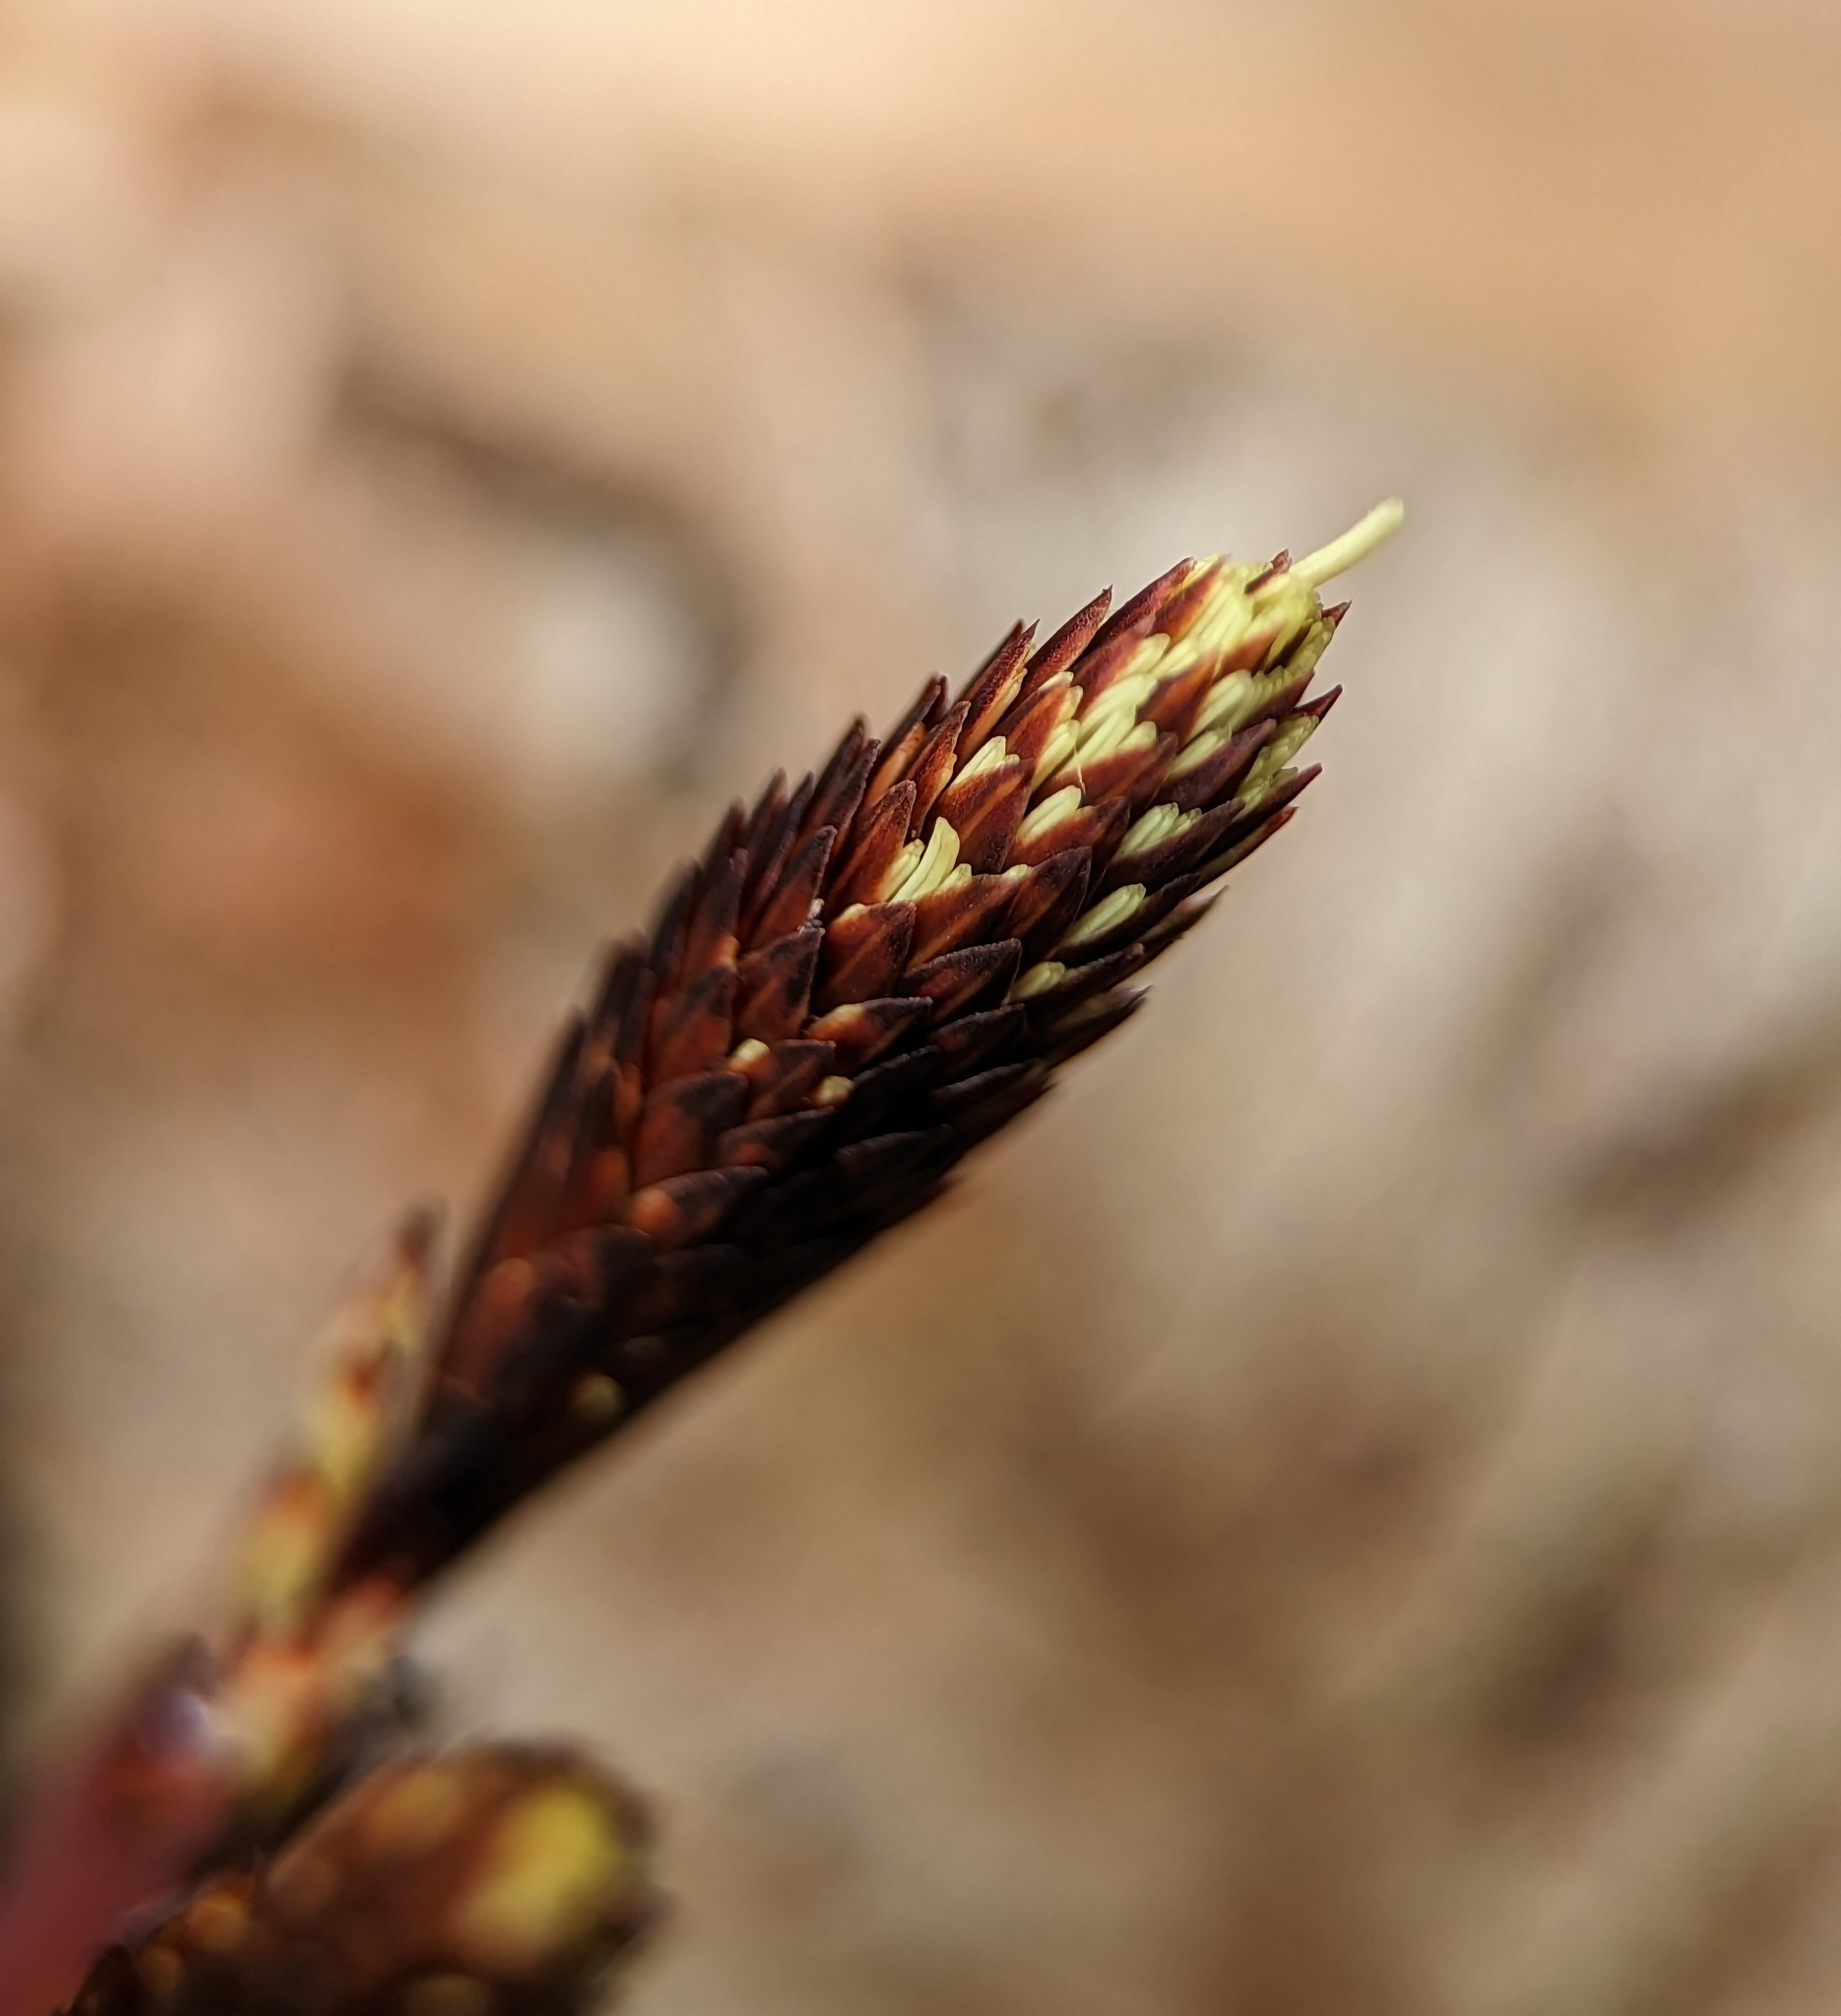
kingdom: Plantae
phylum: Tracheophyta
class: Liliopsida
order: Poales
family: Cyperaceae
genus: Carex
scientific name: Carex plantaginea
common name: Plantain-leaved sedge
